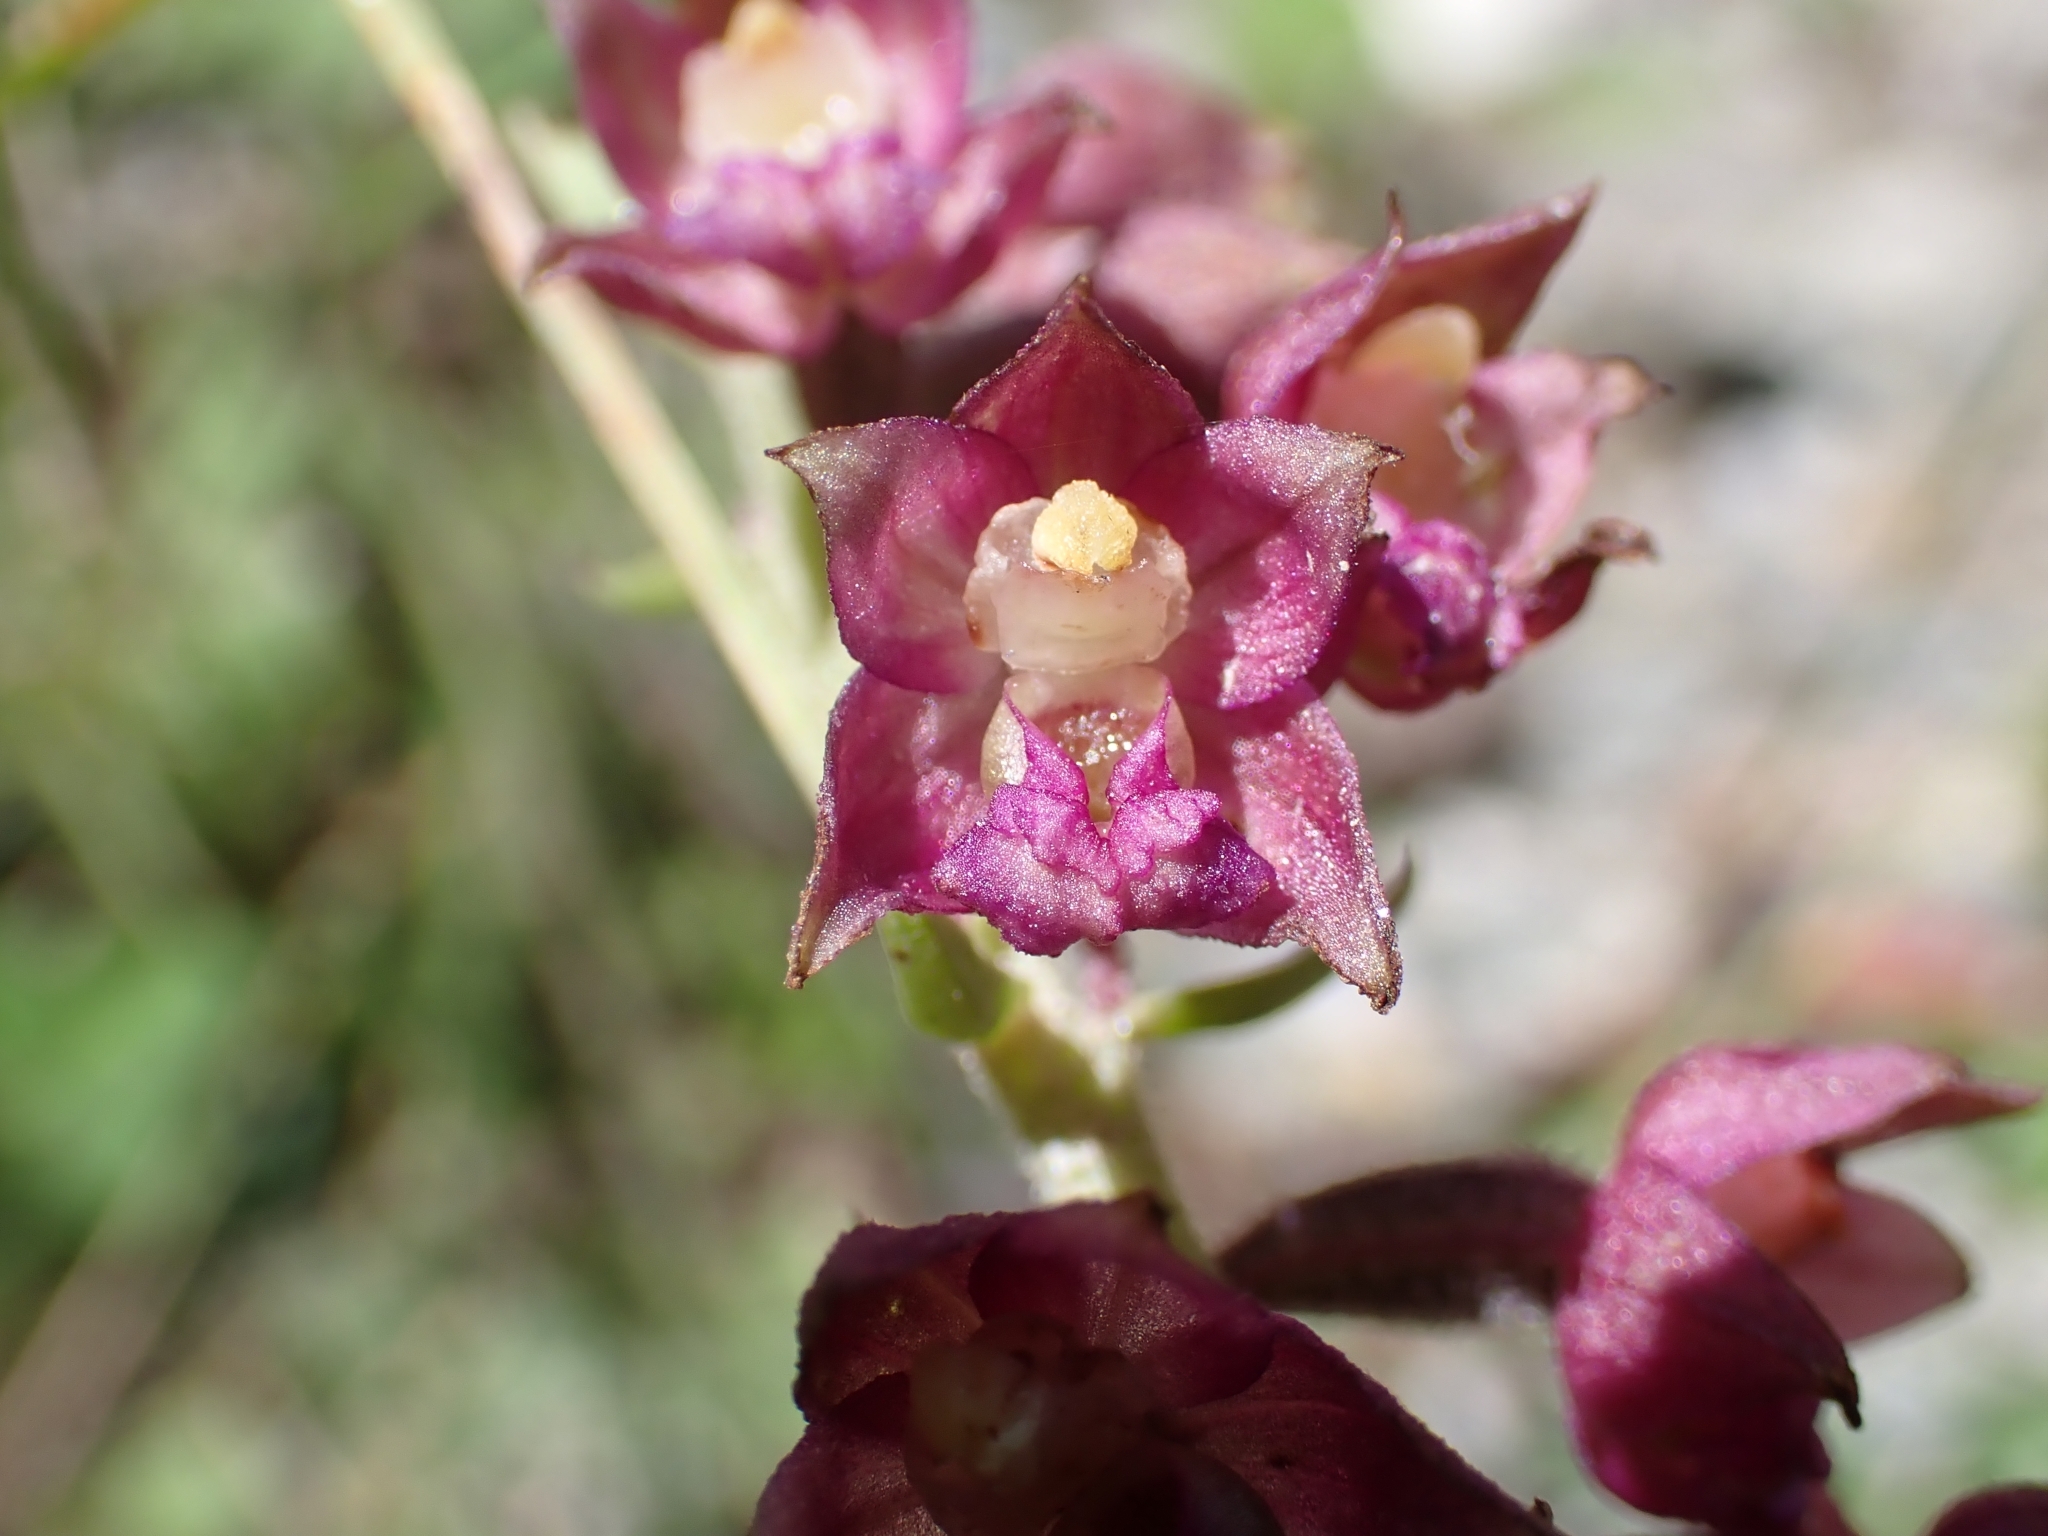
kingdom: Plantae
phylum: Tracheophyta
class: Liliopsida
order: Asparagales
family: Orchidaceae
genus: Epipactis
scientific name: Epipactis atrorubens
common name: Dark-red helleborine
